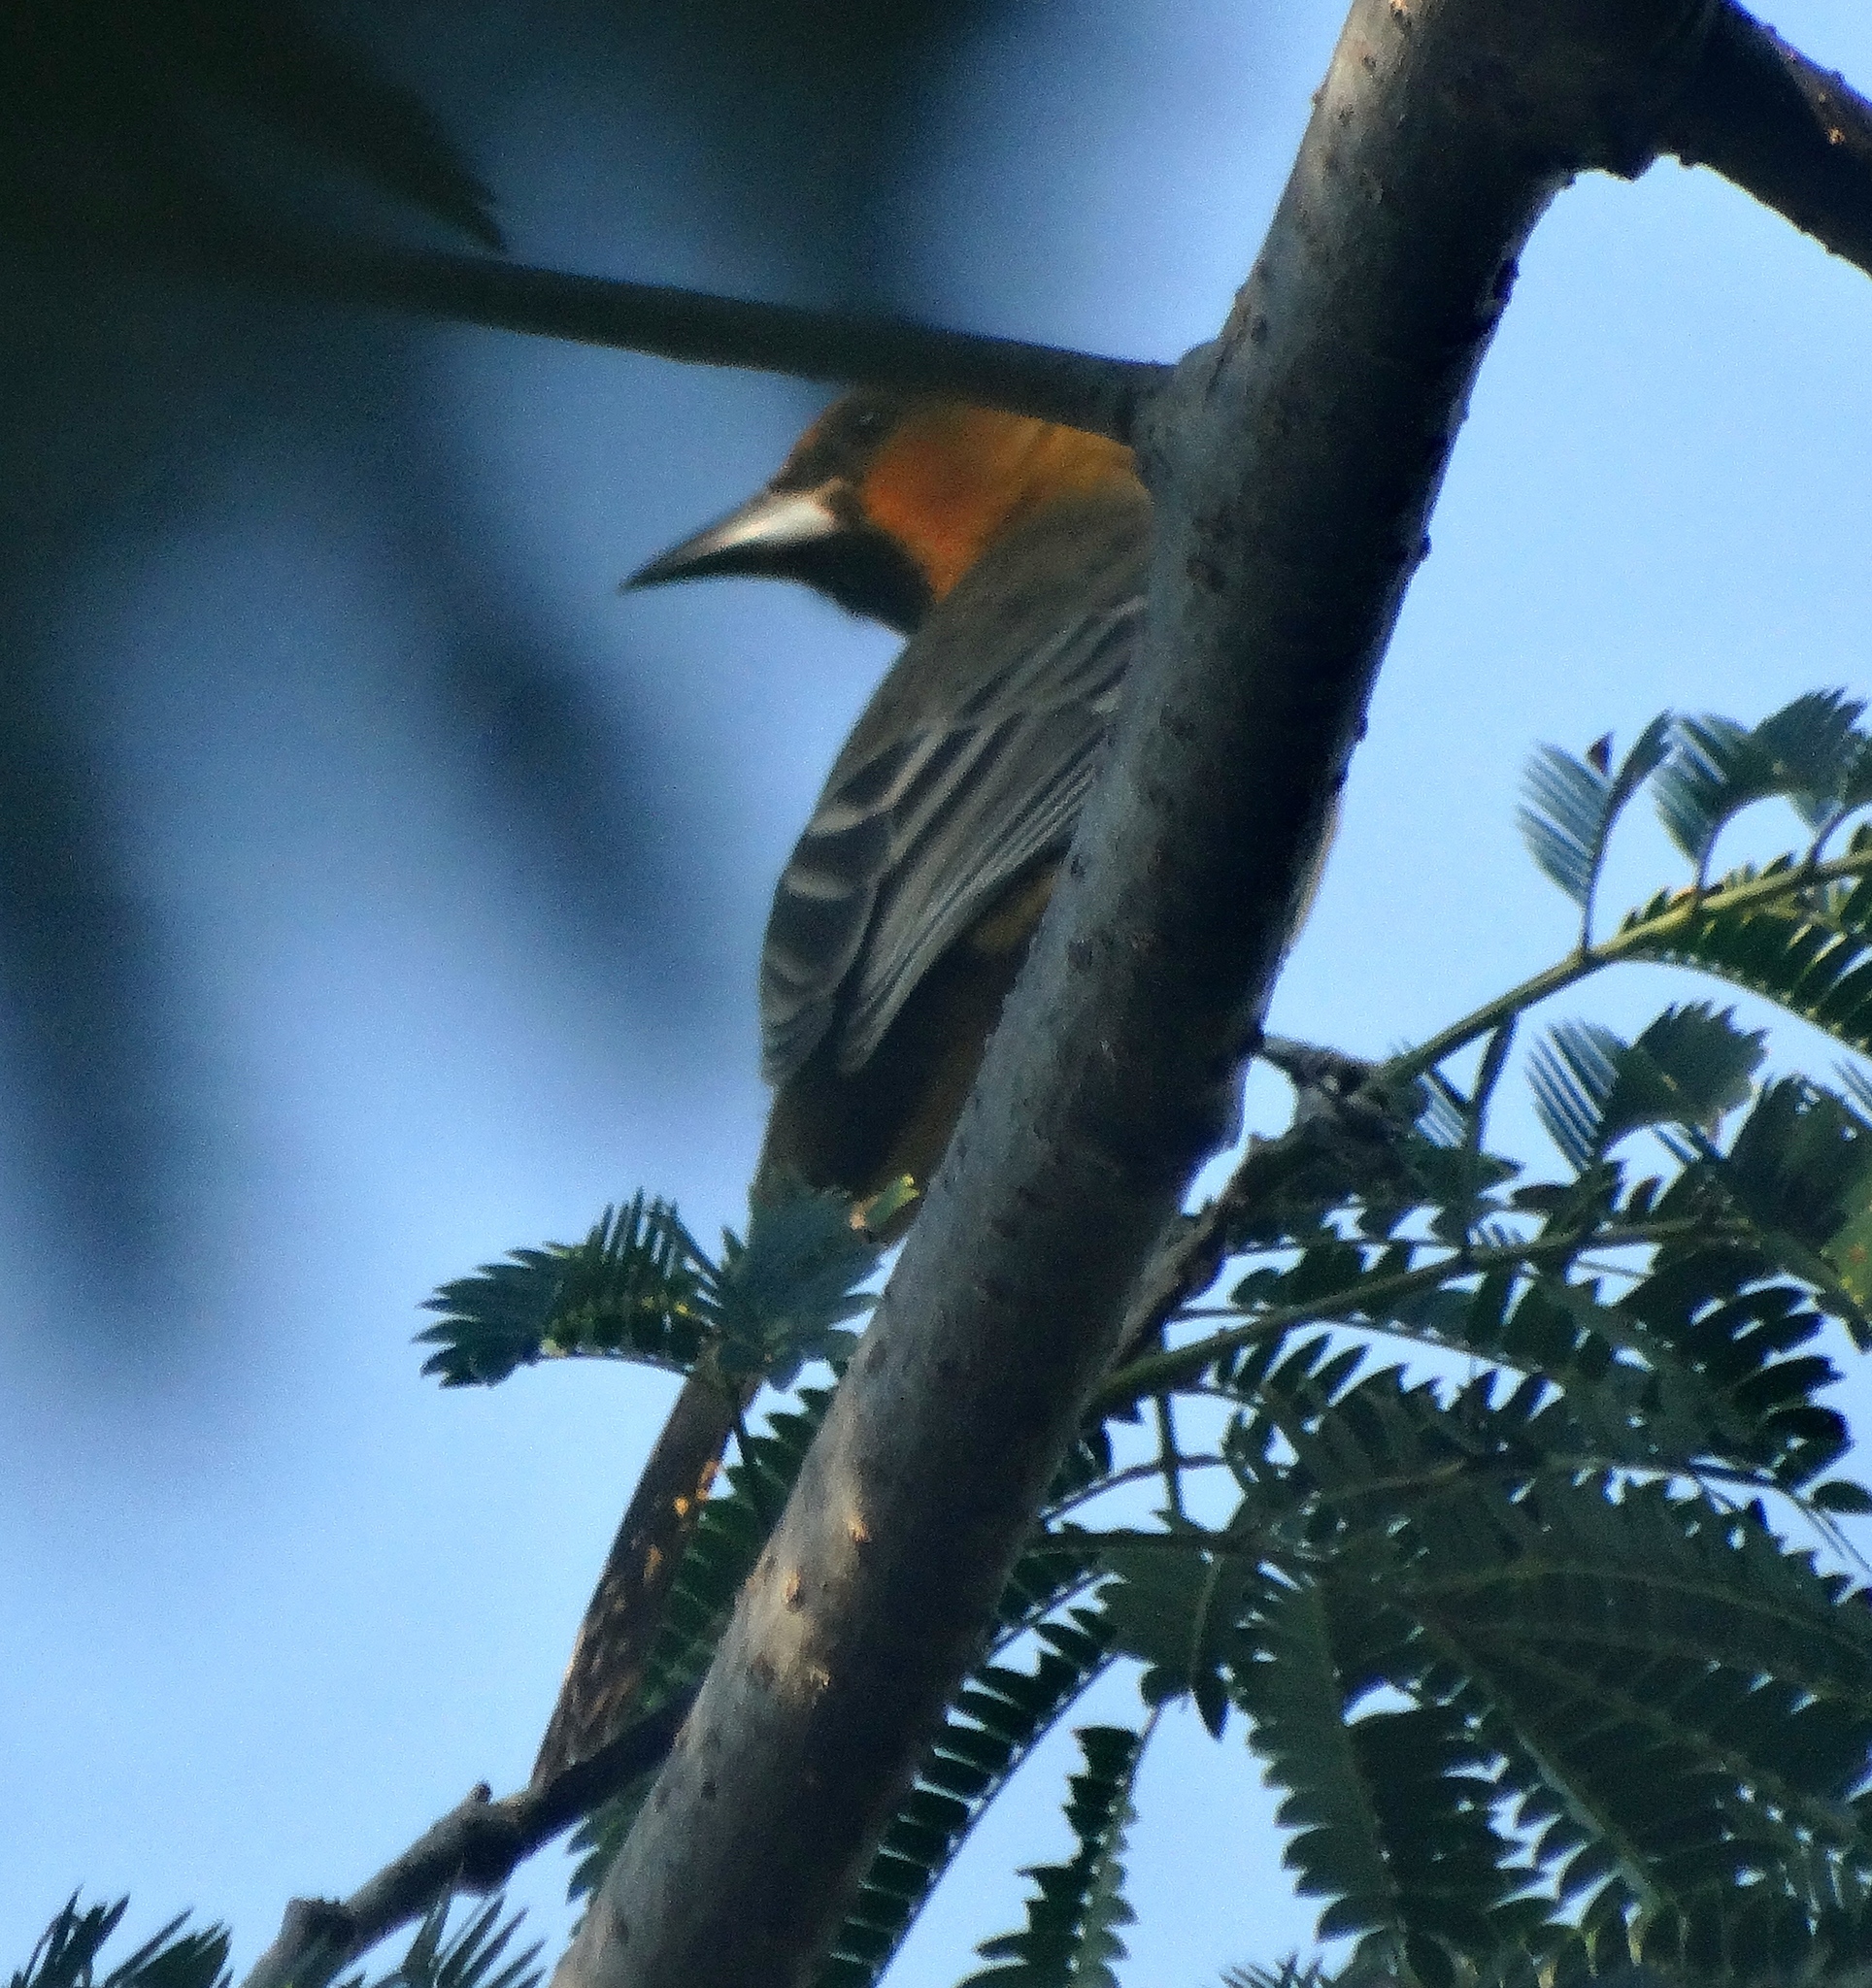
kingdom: Animalia
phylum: Chordata
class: Aves
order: Passeriformes
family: Icteridae
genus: Icterus
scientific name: Icterus pustulatus
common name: Streak-backed oriole
